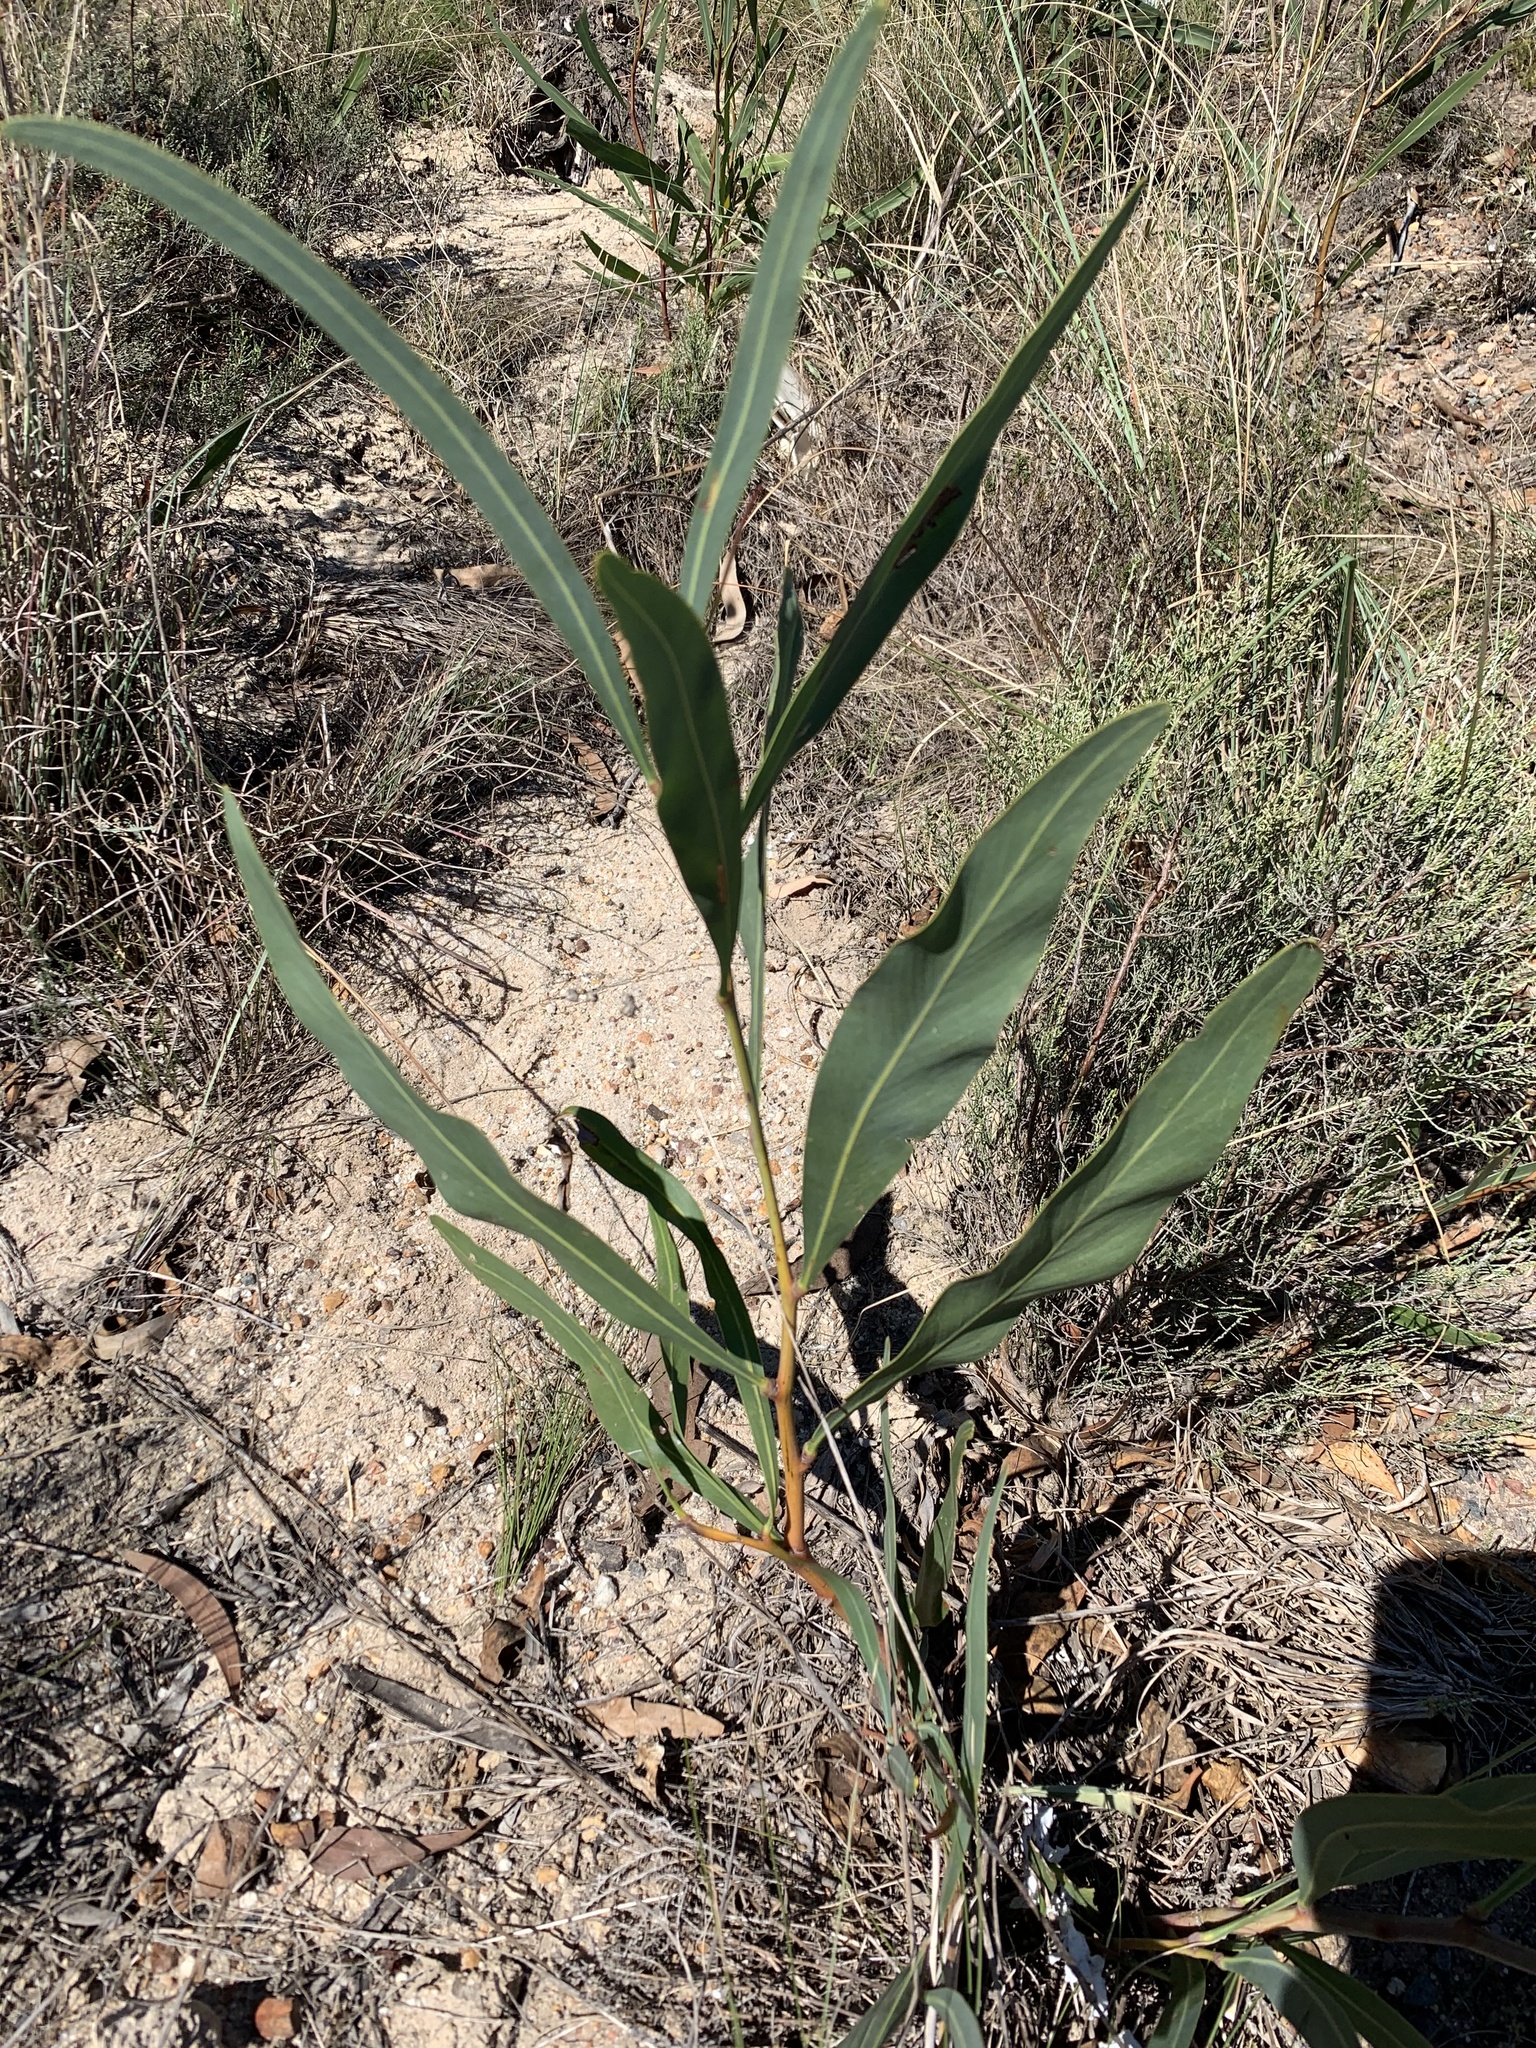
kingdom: Plantae
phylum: Tracheophyta
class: Magnoliopsida
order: Fabales
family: Fabaceae
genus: Acacia
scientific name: Acacia saligna
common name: Orange wattle
